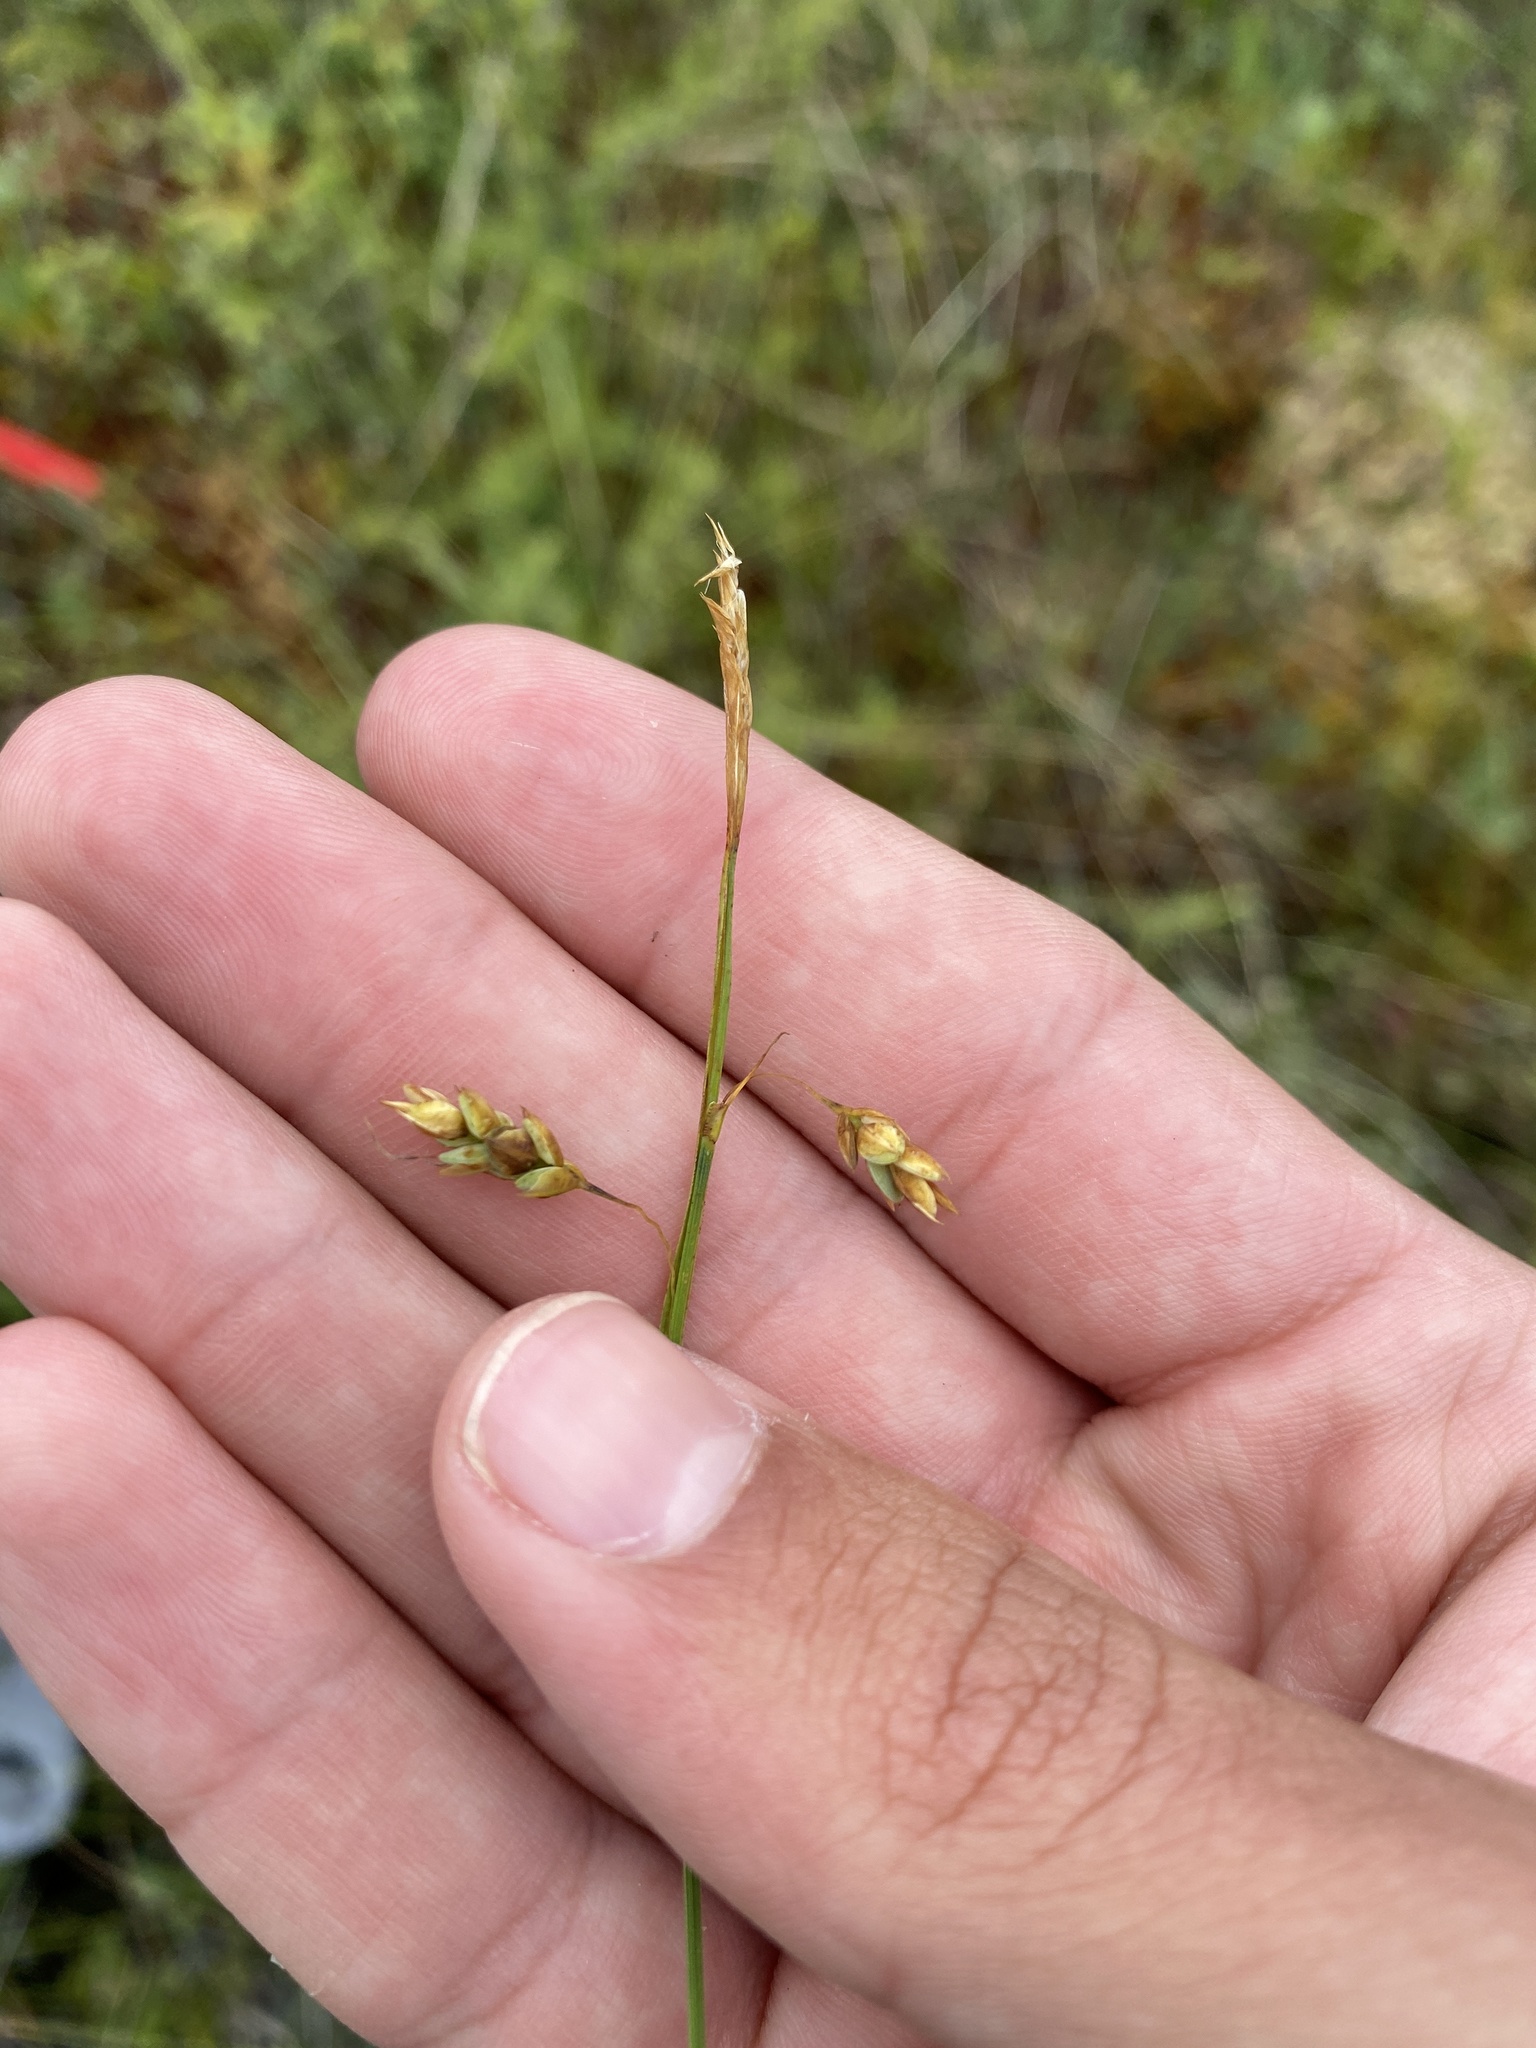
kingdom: Plantae
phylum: Tracheophyta
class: Liliopsida
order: Poales
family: Cyperaceae
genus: Carex
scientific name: Carex limosa
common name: Bog sedge
